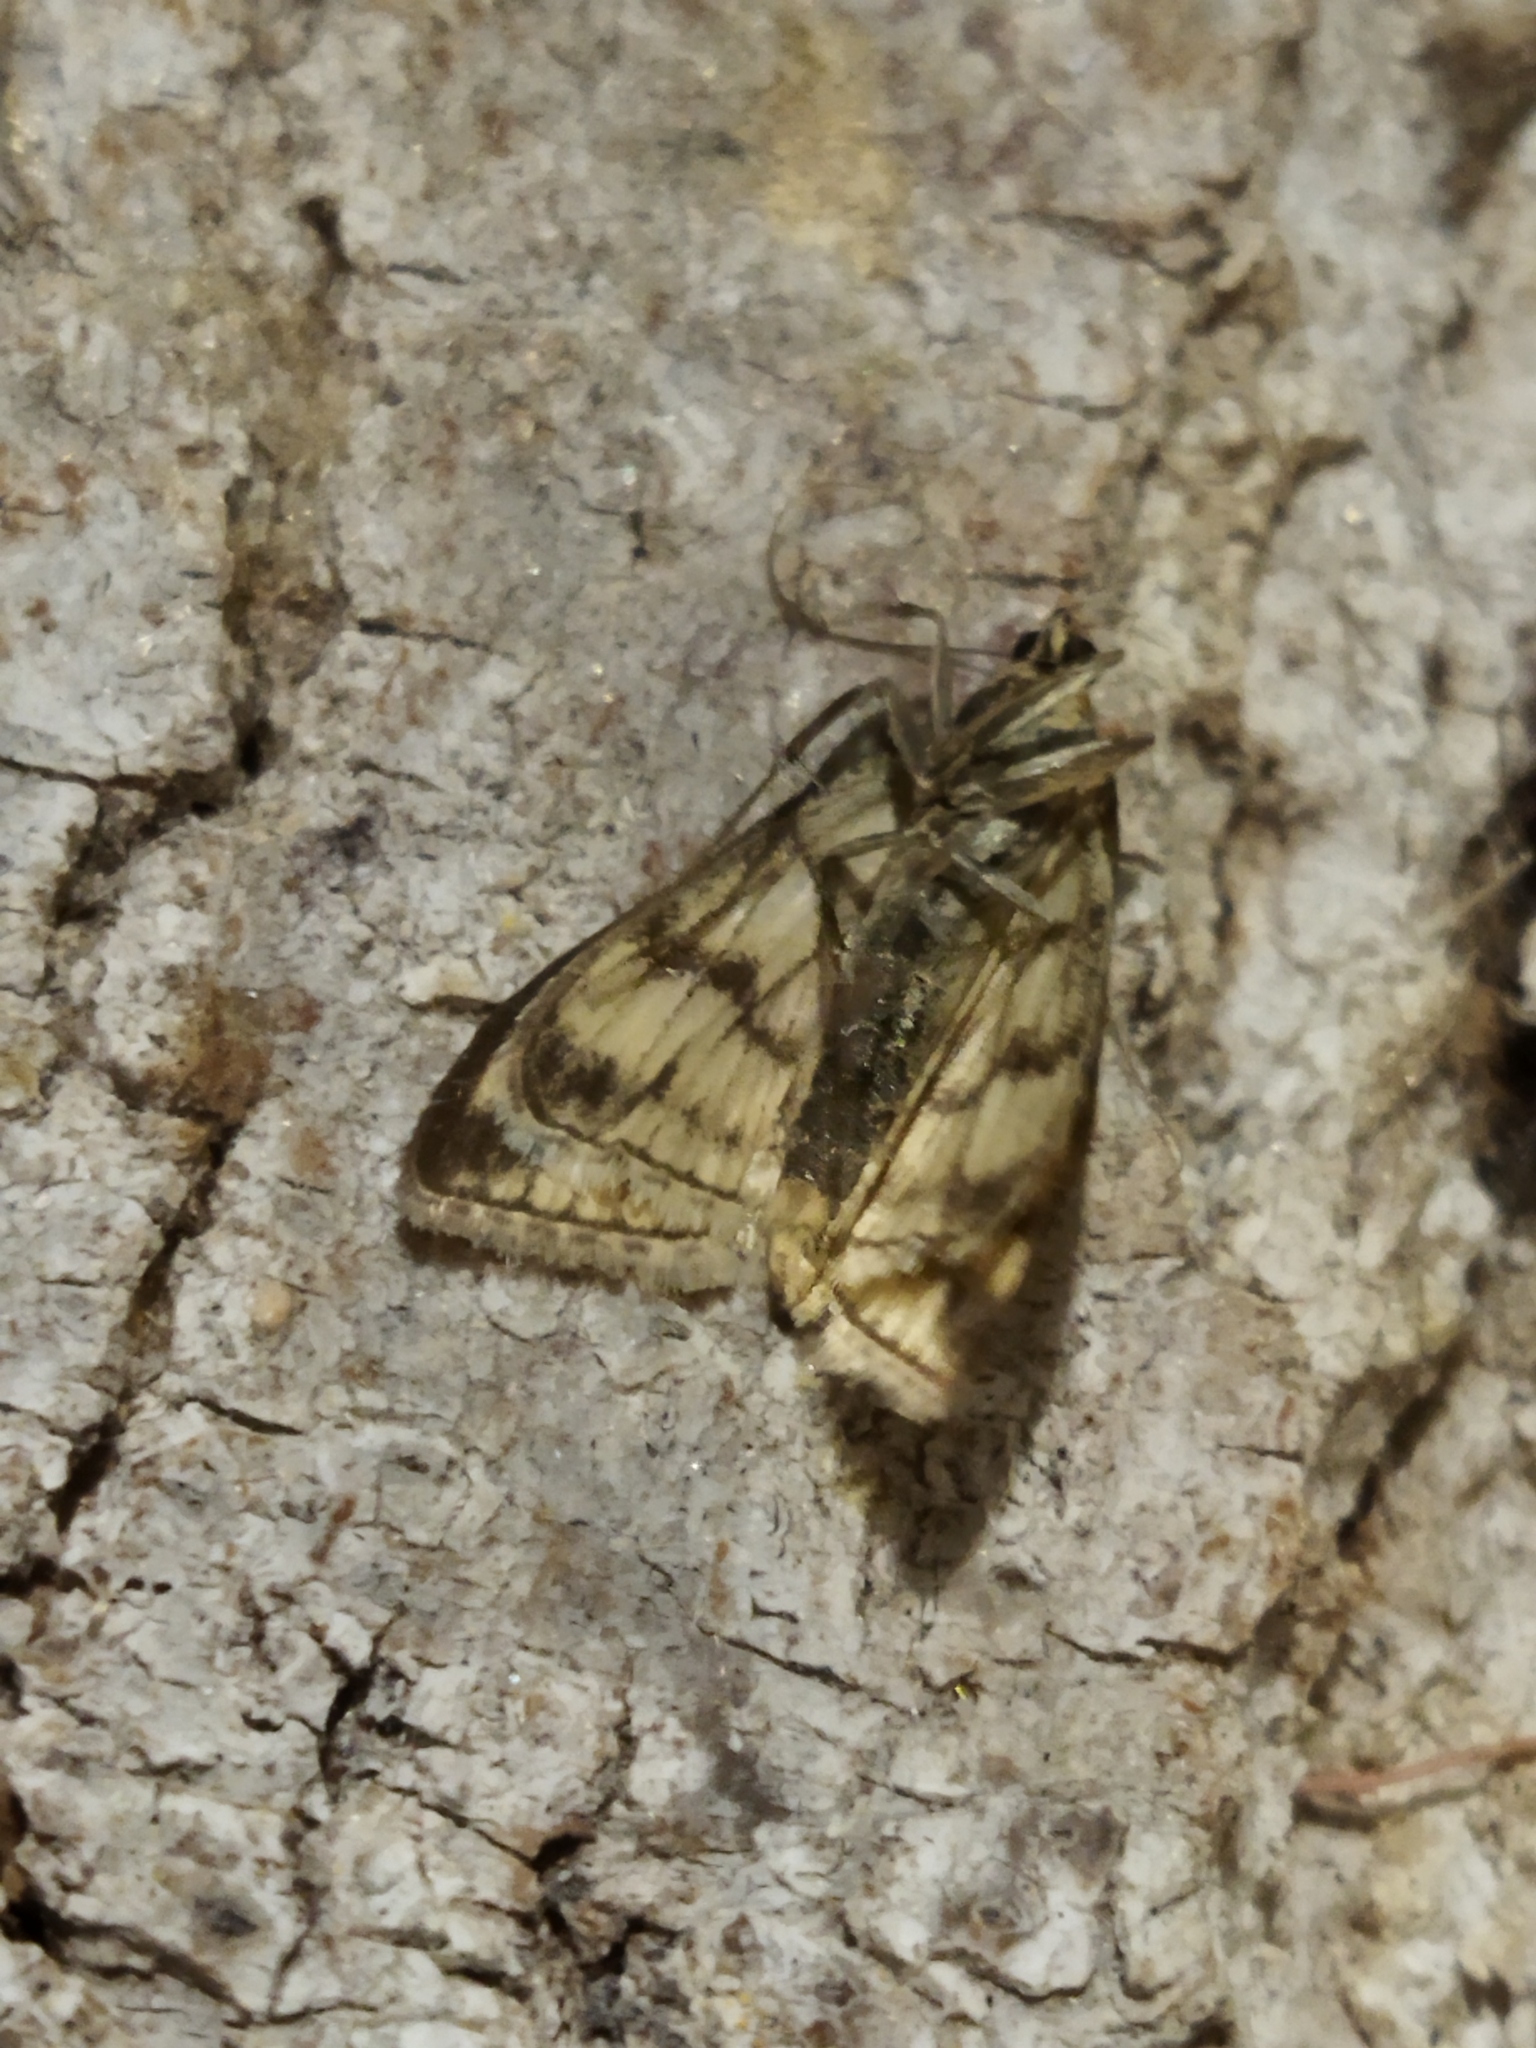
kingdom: Animalia
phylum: Arthropoda
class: Insecta
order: Lepidoptera
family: Crambidae
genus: Sitochroa
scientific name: Sitochroa verticalis
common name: Lesser pearl
